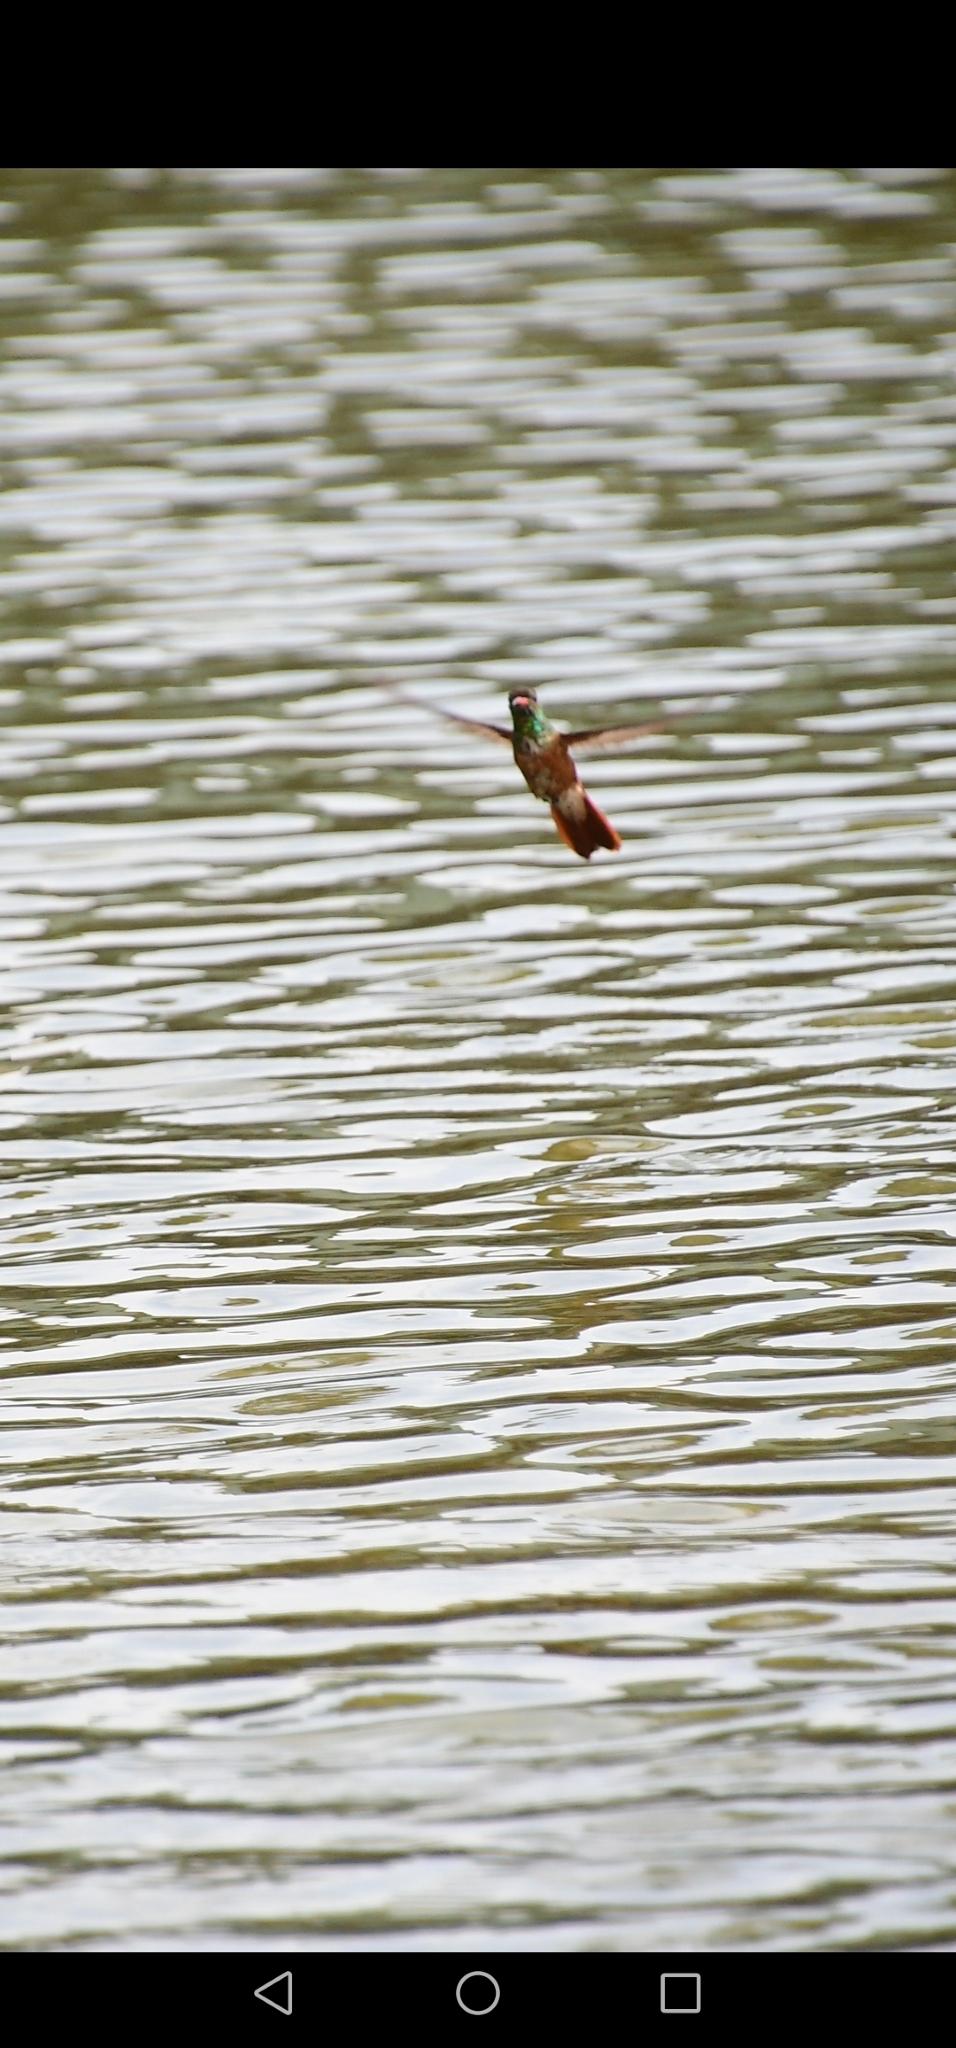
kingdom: Animalia
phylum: Chordata
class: Aves
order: Apodiformes
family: Trochilidae
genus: Amazilis
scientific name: Amazilis amazilia
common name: Amazilia hummingbird
